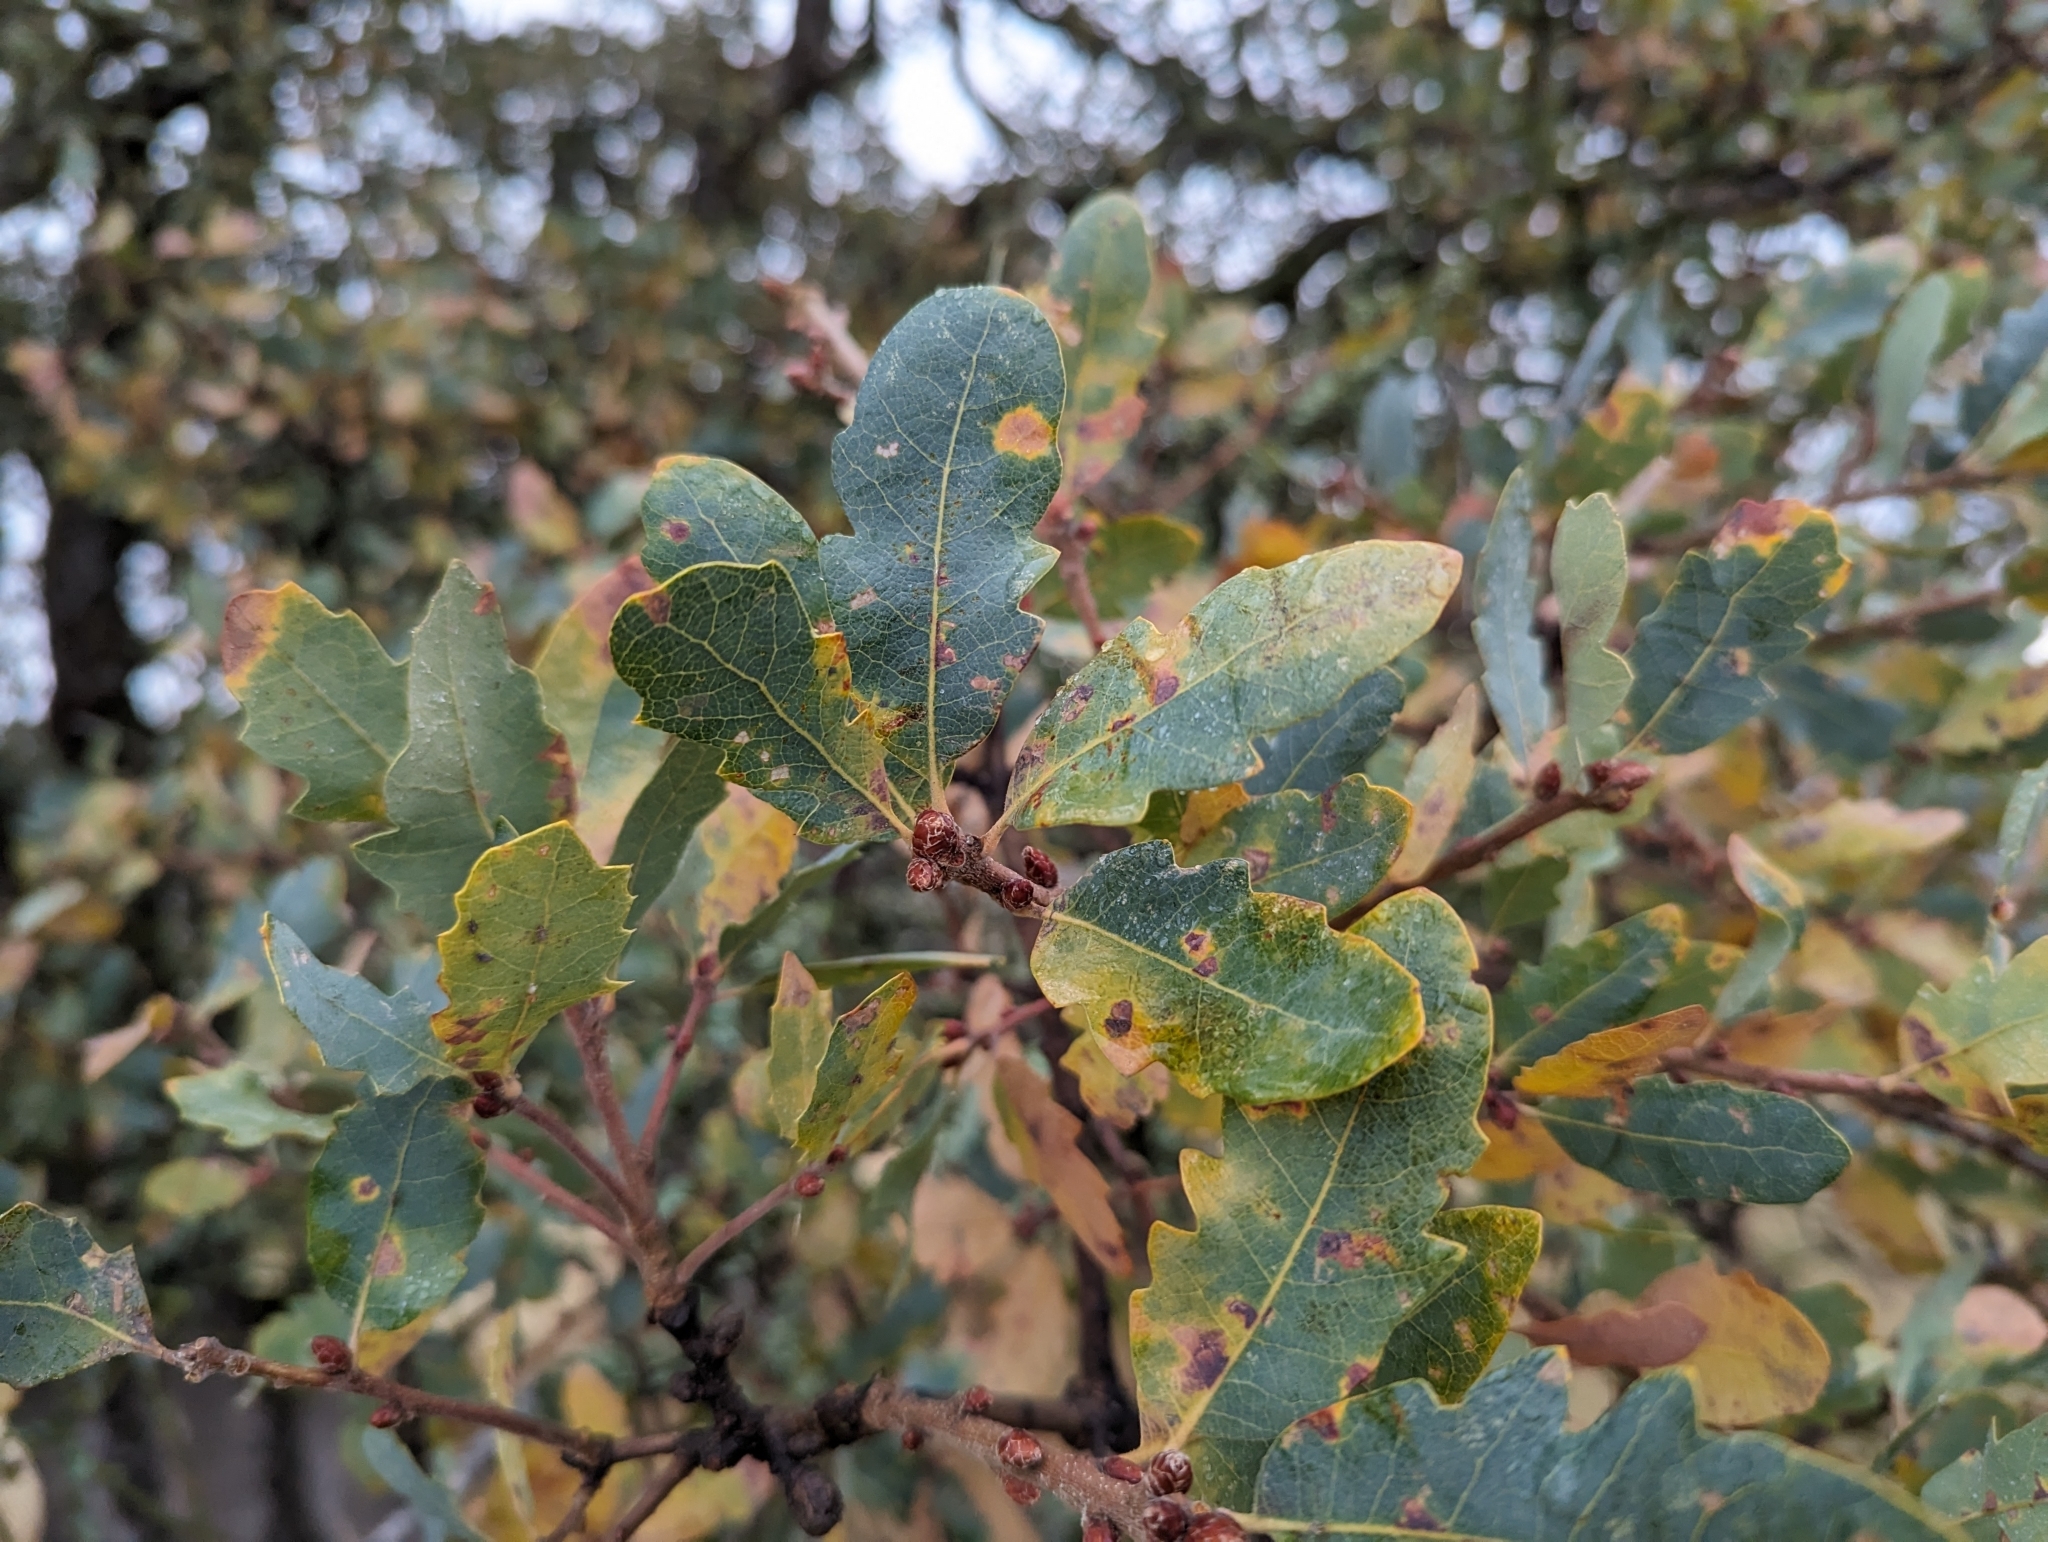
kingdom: Plantae
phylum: Tracheophyta
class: Magnoliopsida
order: Fagales
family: Fagaceae
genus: Quercus
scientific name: Quercus douglasii
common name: Blue oak
